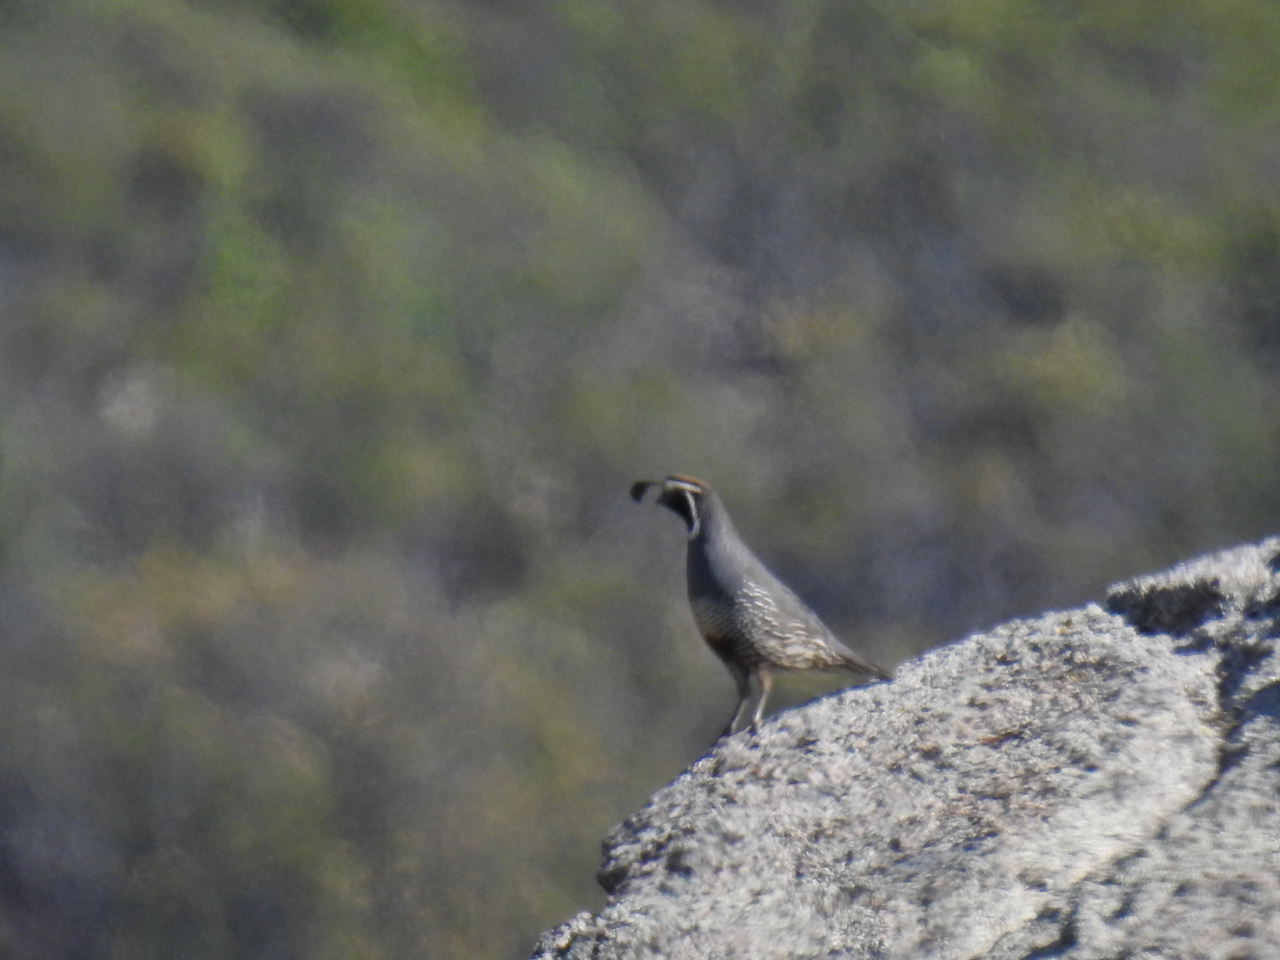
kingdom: Animalia
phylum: Chordata
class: Aves
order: Galliformes
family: Odontophoridae
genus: Callipepla
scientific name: Callipepla californica
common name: California quail
